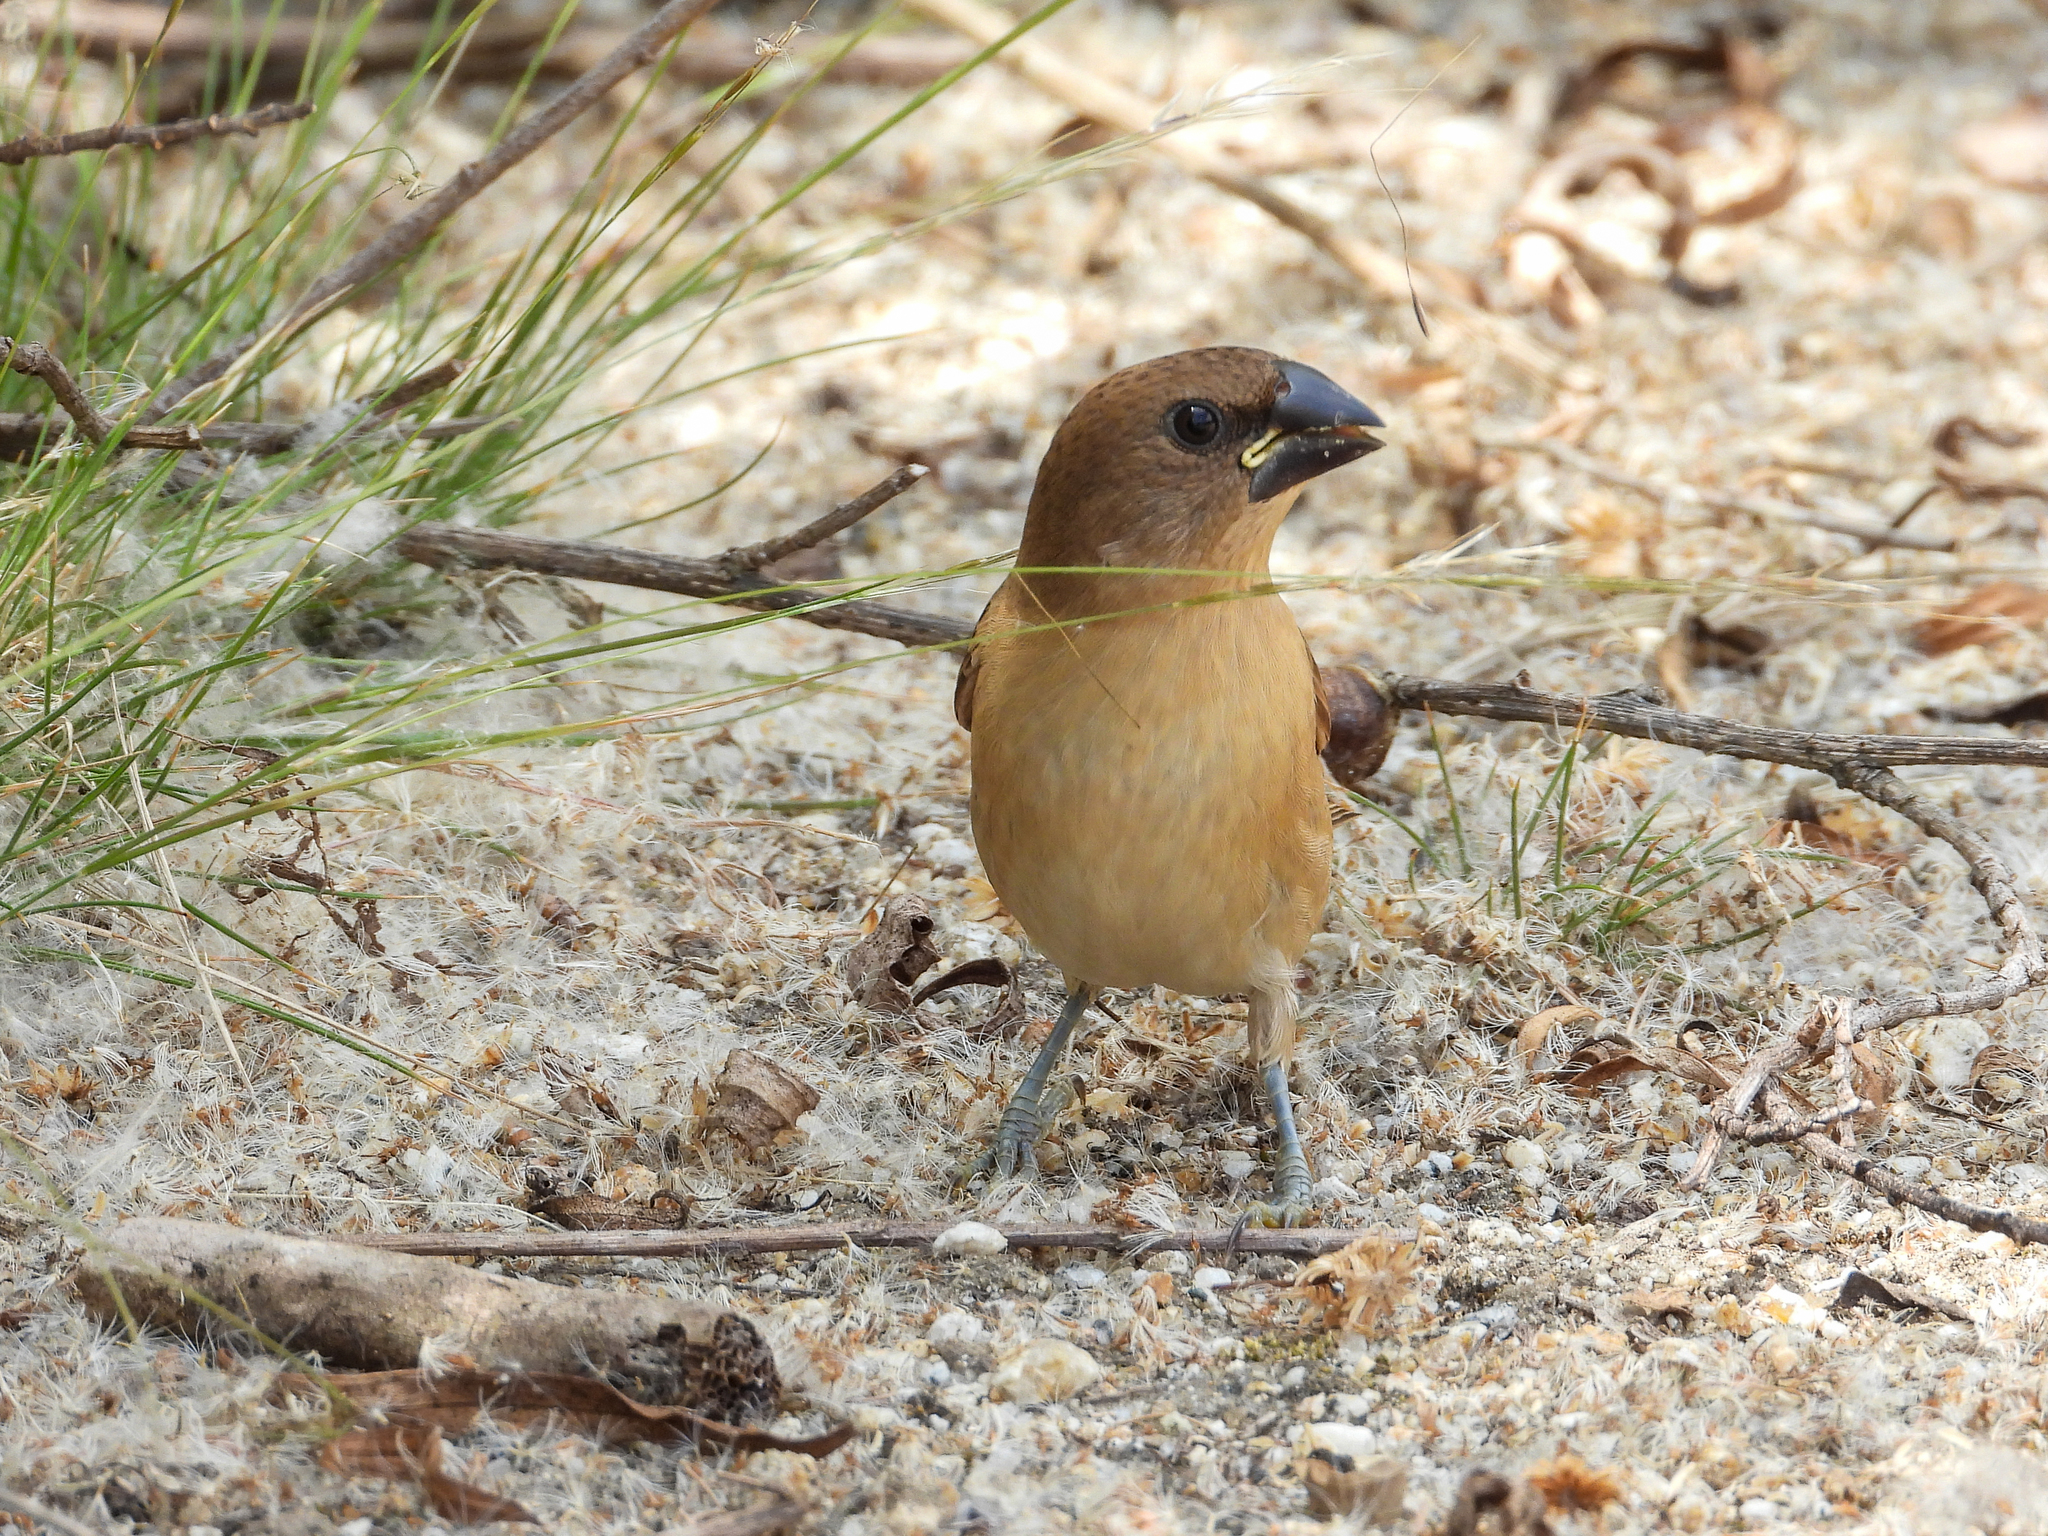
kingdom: Animalia
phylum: Chordata
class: Aves
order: Passeriformes
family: Estrildidae
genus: Lonchura
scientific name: Lonchura punctulata
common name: Scaly-breasted munia
